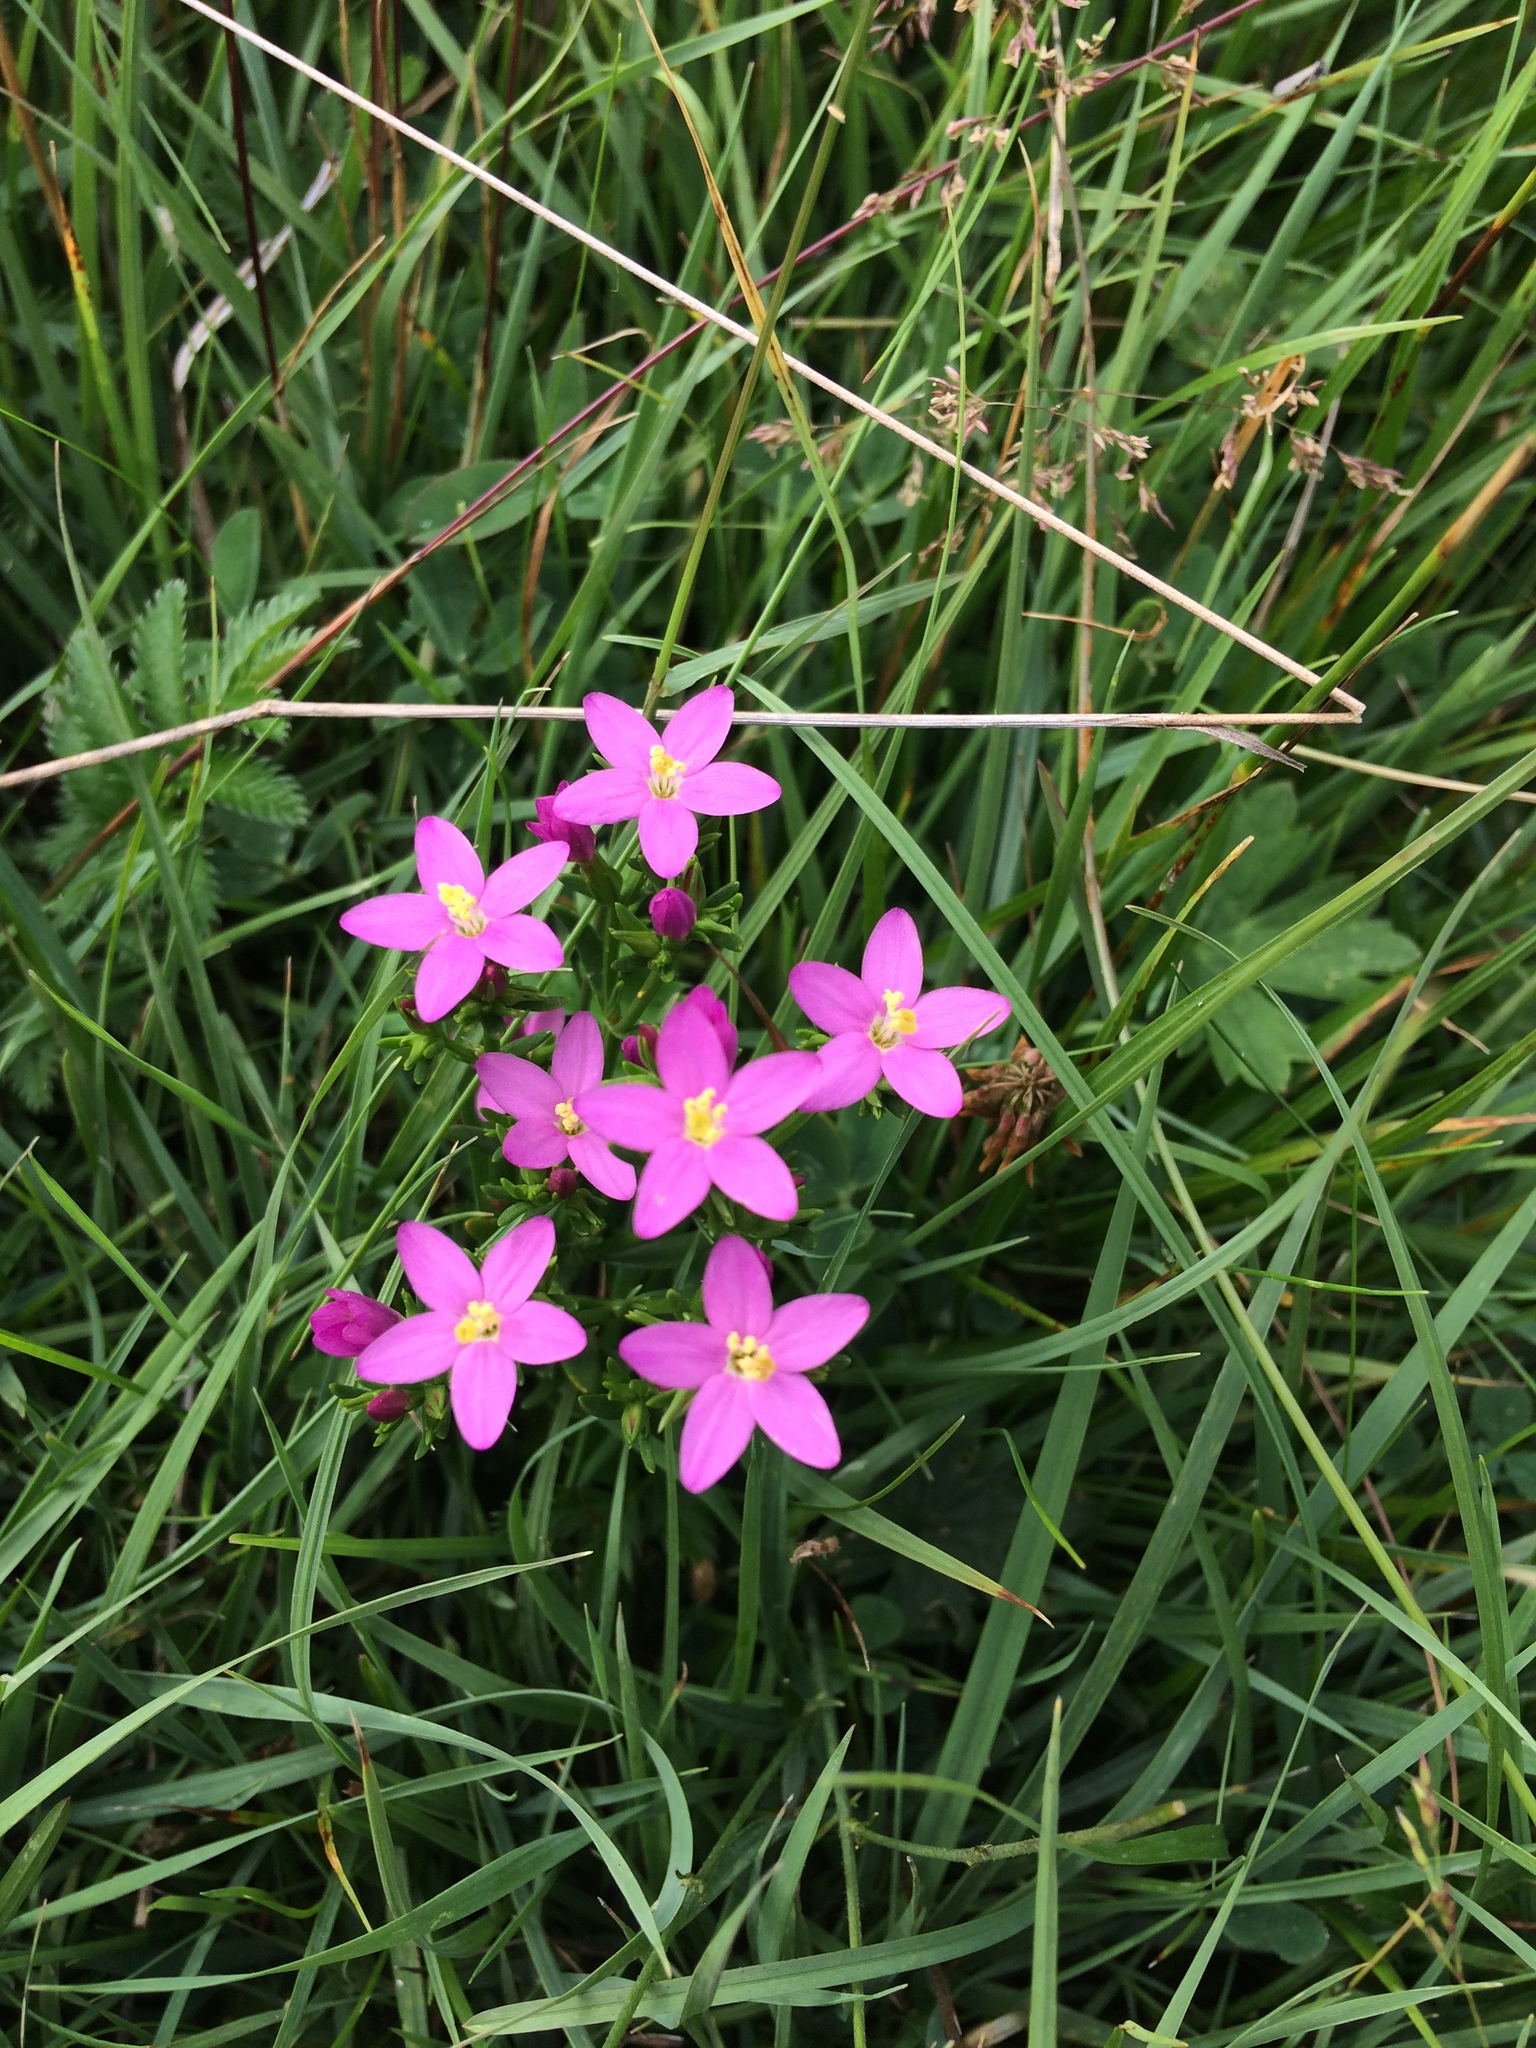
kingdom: Plantae
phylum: Tracheophyta
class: Magnoliopsida
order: Gentianales
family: Gentianaceae
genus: Centaurium
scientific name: Centaurium erythraea
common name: Common centaury
